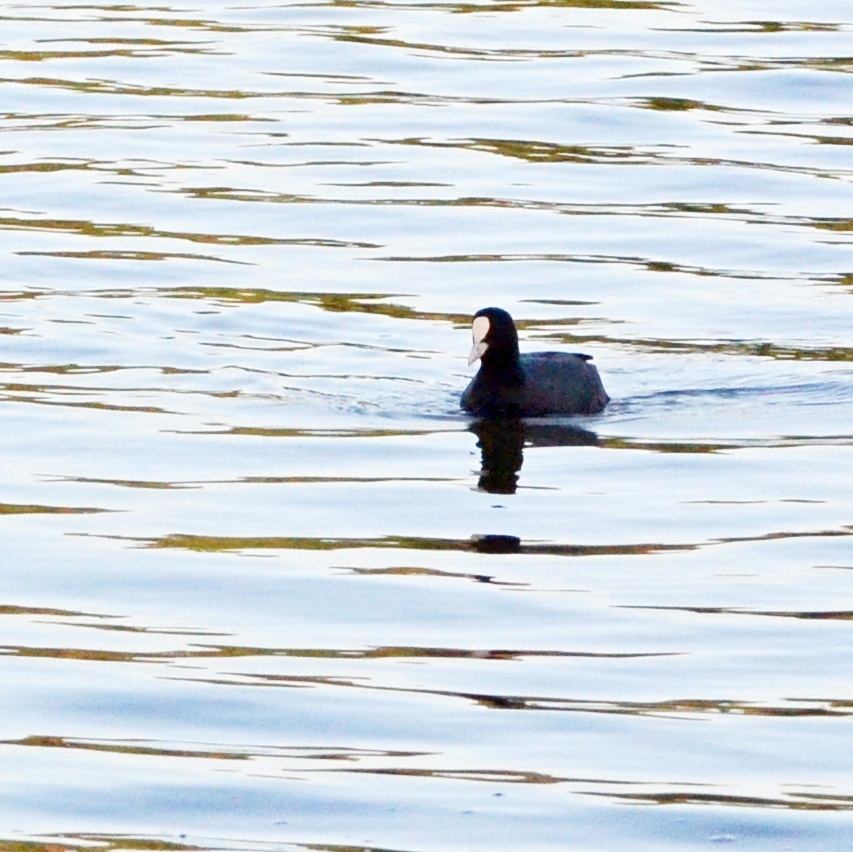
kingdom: Animalia
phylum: Chordata
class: Aves
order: Gruiformes
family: Rallidae
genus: Fulica
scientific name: Fulica atra
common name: Eurasian coot
